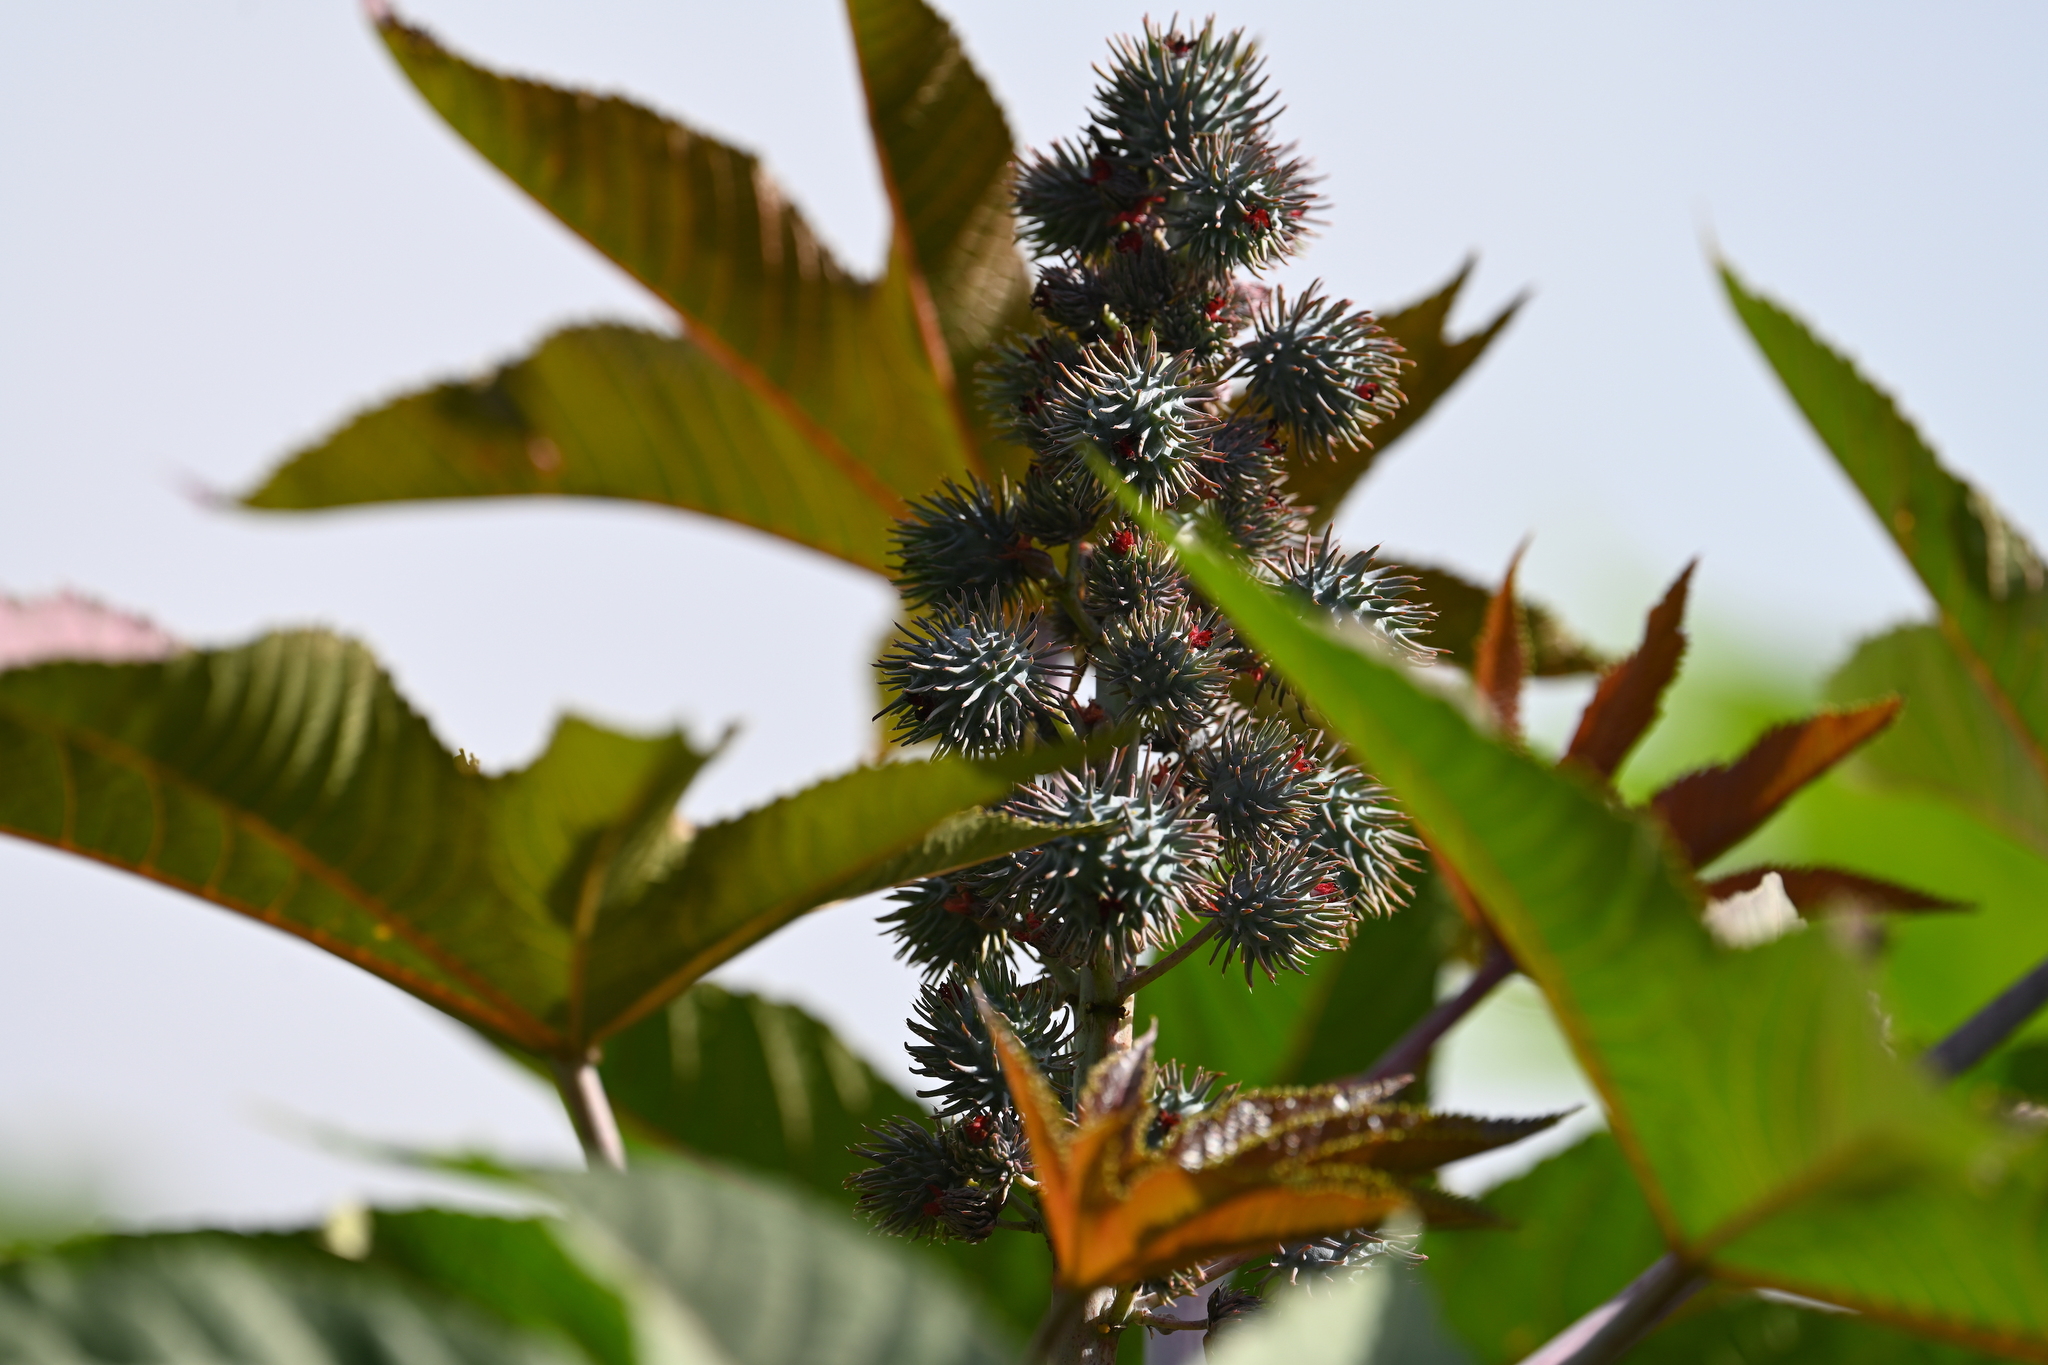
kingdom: Plantae
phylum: Tracheophyta
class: Magnoliopsida
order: Malpighiales
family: Euphorbiaceae
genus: Ricinus
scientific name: Ricinus communis
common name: Castor-oil-plant
